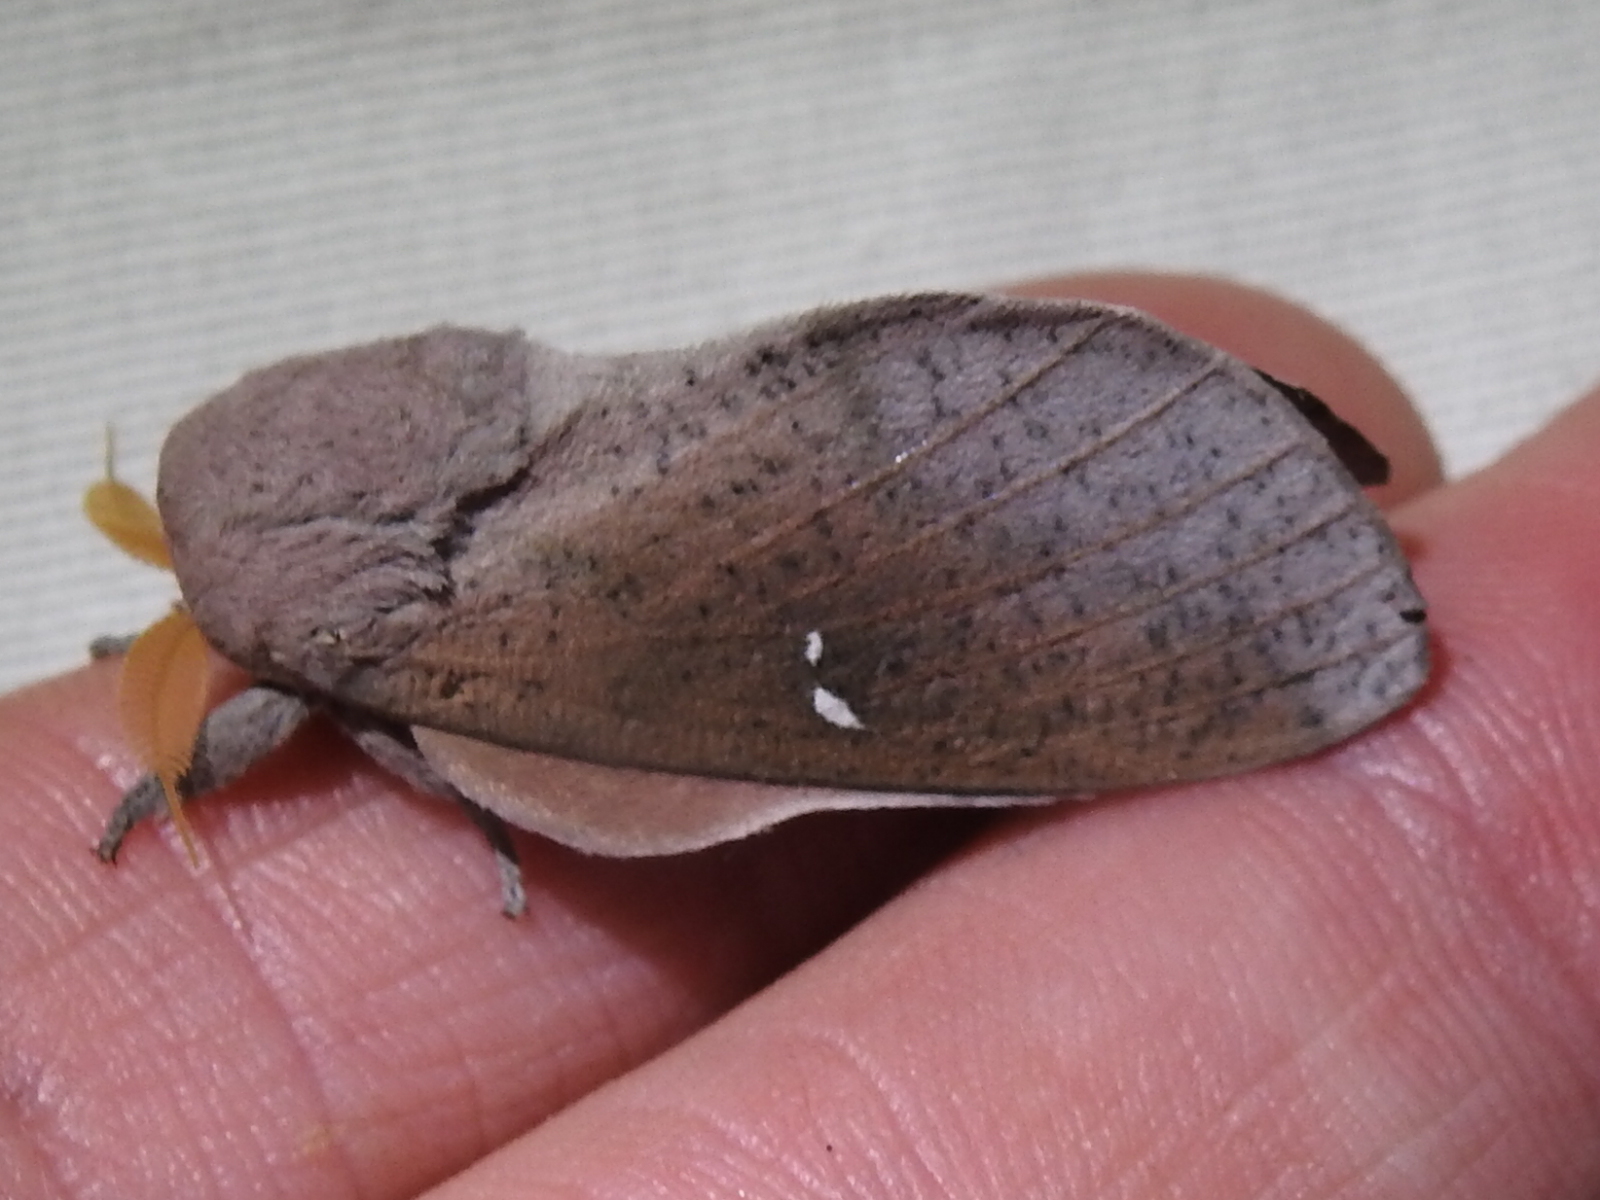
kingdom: Animalia
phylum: Arthropoda
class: Insecta
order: Lepidoptera
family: Saturniidae
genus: Syssphinx
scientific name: Syssphinx bicolor
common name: Honey locust moth
